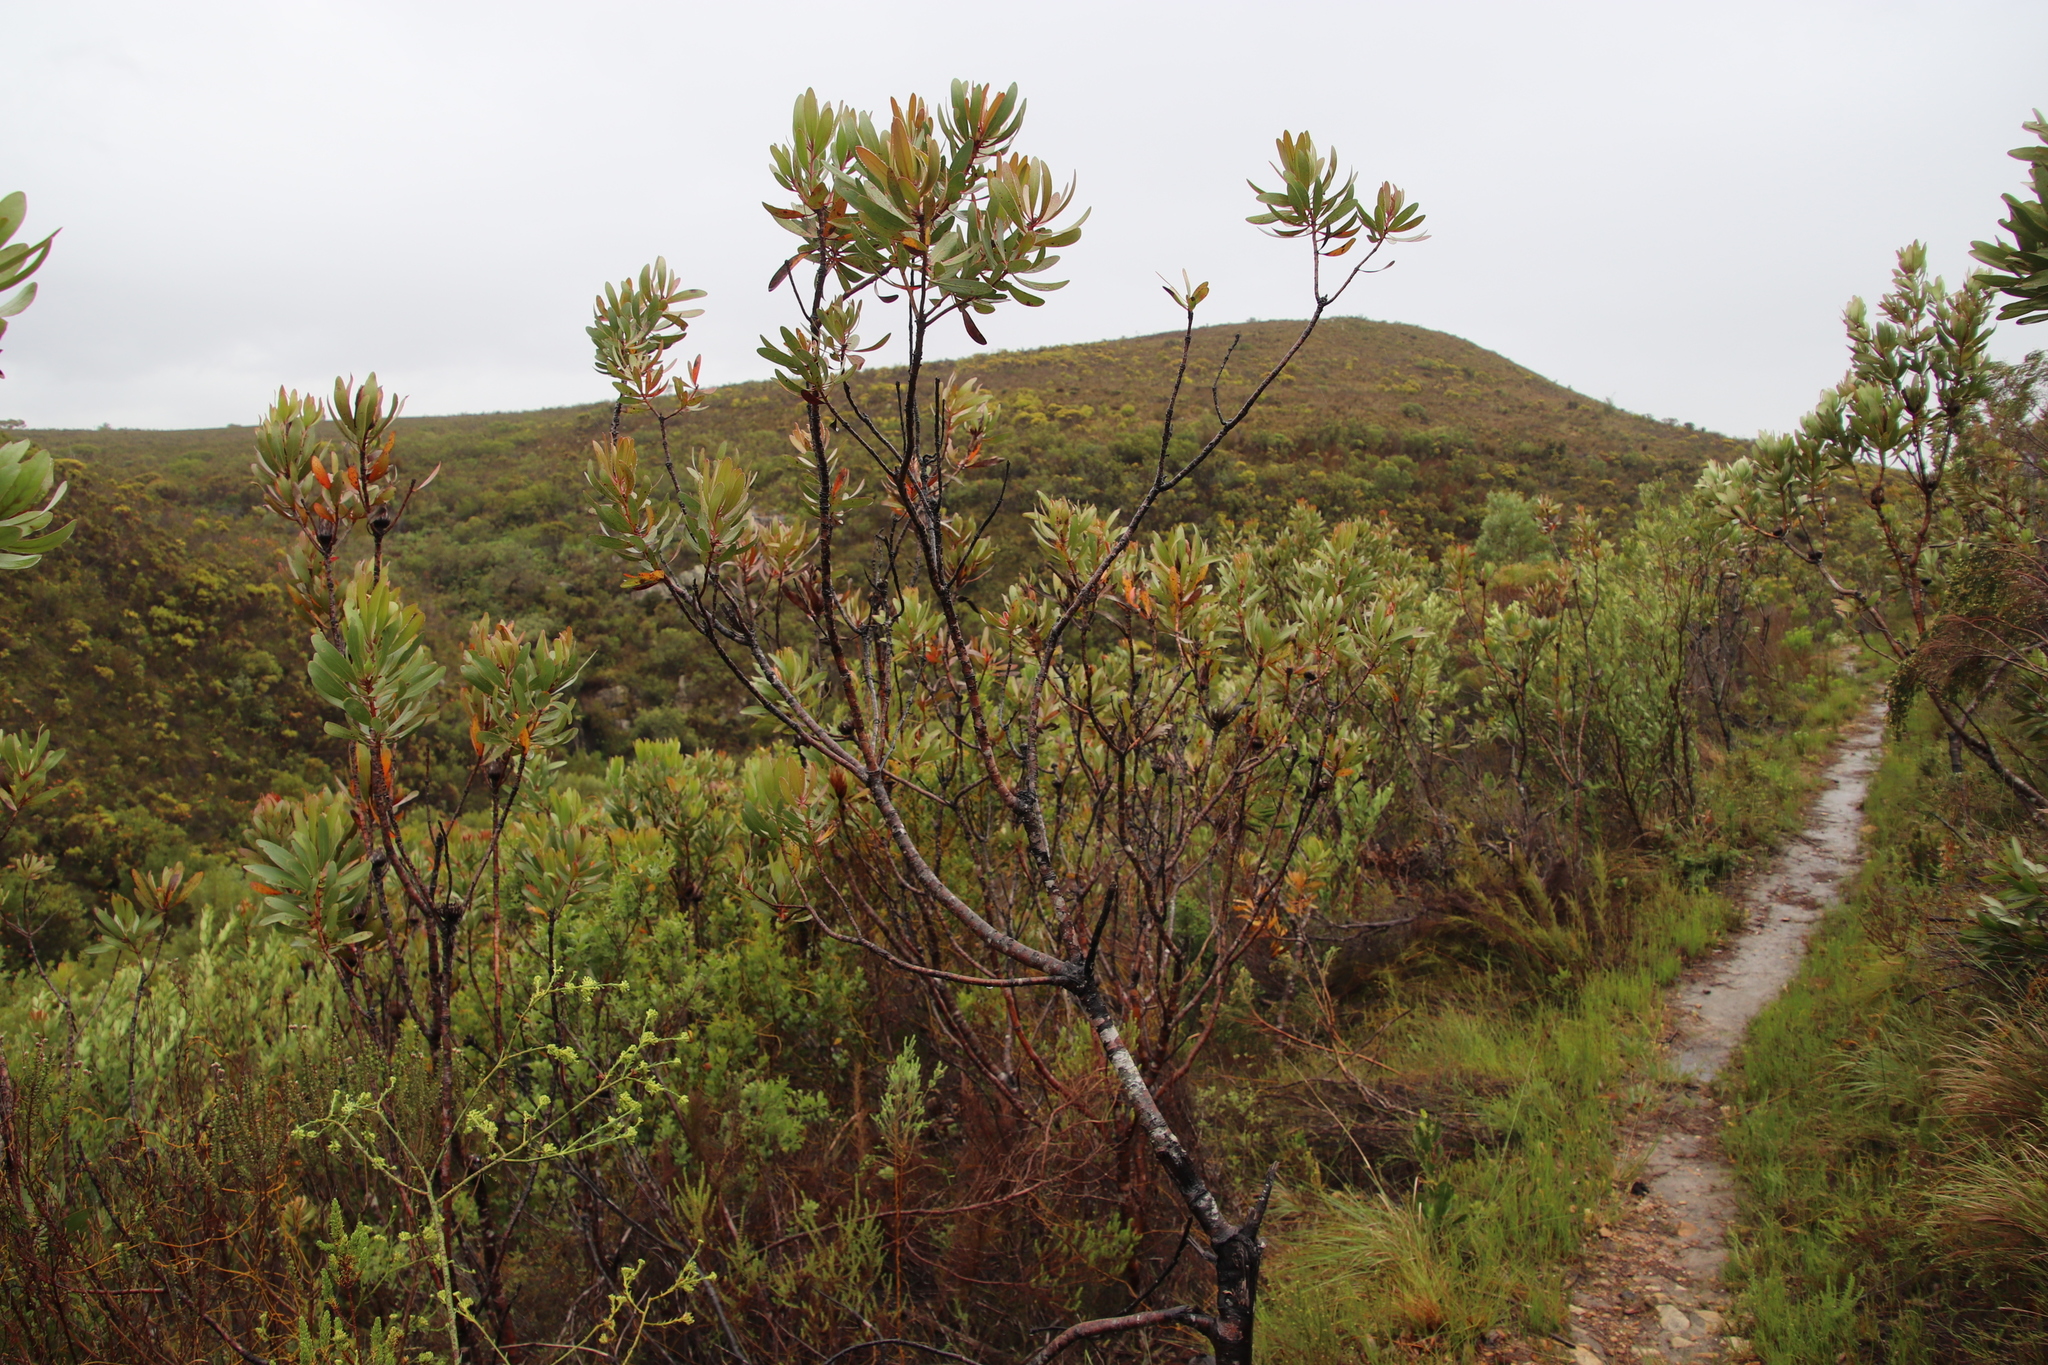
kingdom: Plantae
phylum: Tracheophyta
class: Magnoliopsida
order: Proteales
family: Proteaceae
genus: Protea
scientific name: Protea obtusifolia
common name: Bredasdorp sugarbush
